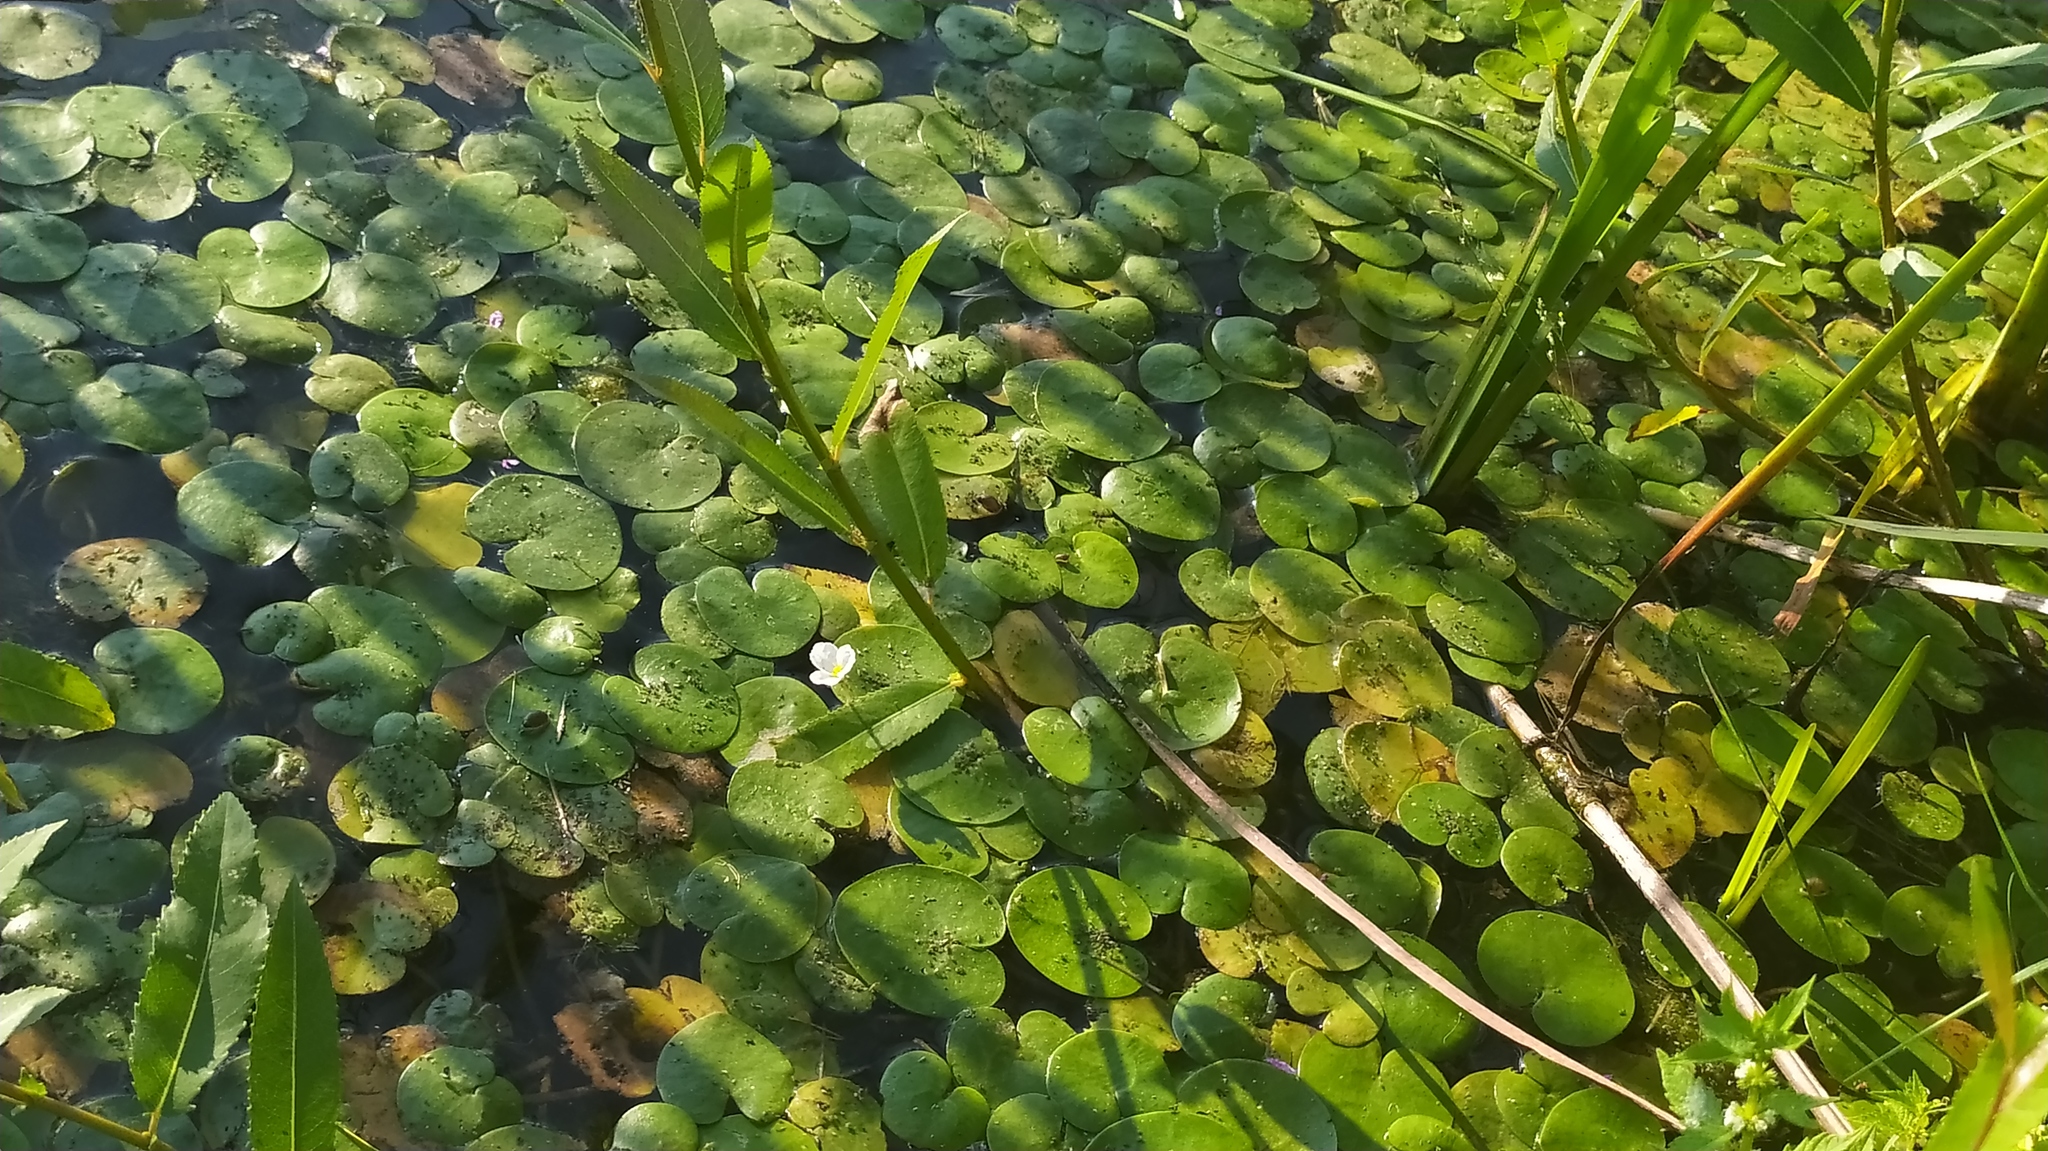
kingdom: Plantae
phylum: Tracheophyta
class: Liliopsida
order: Alismatales
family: Hydrocharitaceae
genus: Hydrocharis
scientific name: Hydrocharis morsus-ranae
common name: Frogbit
